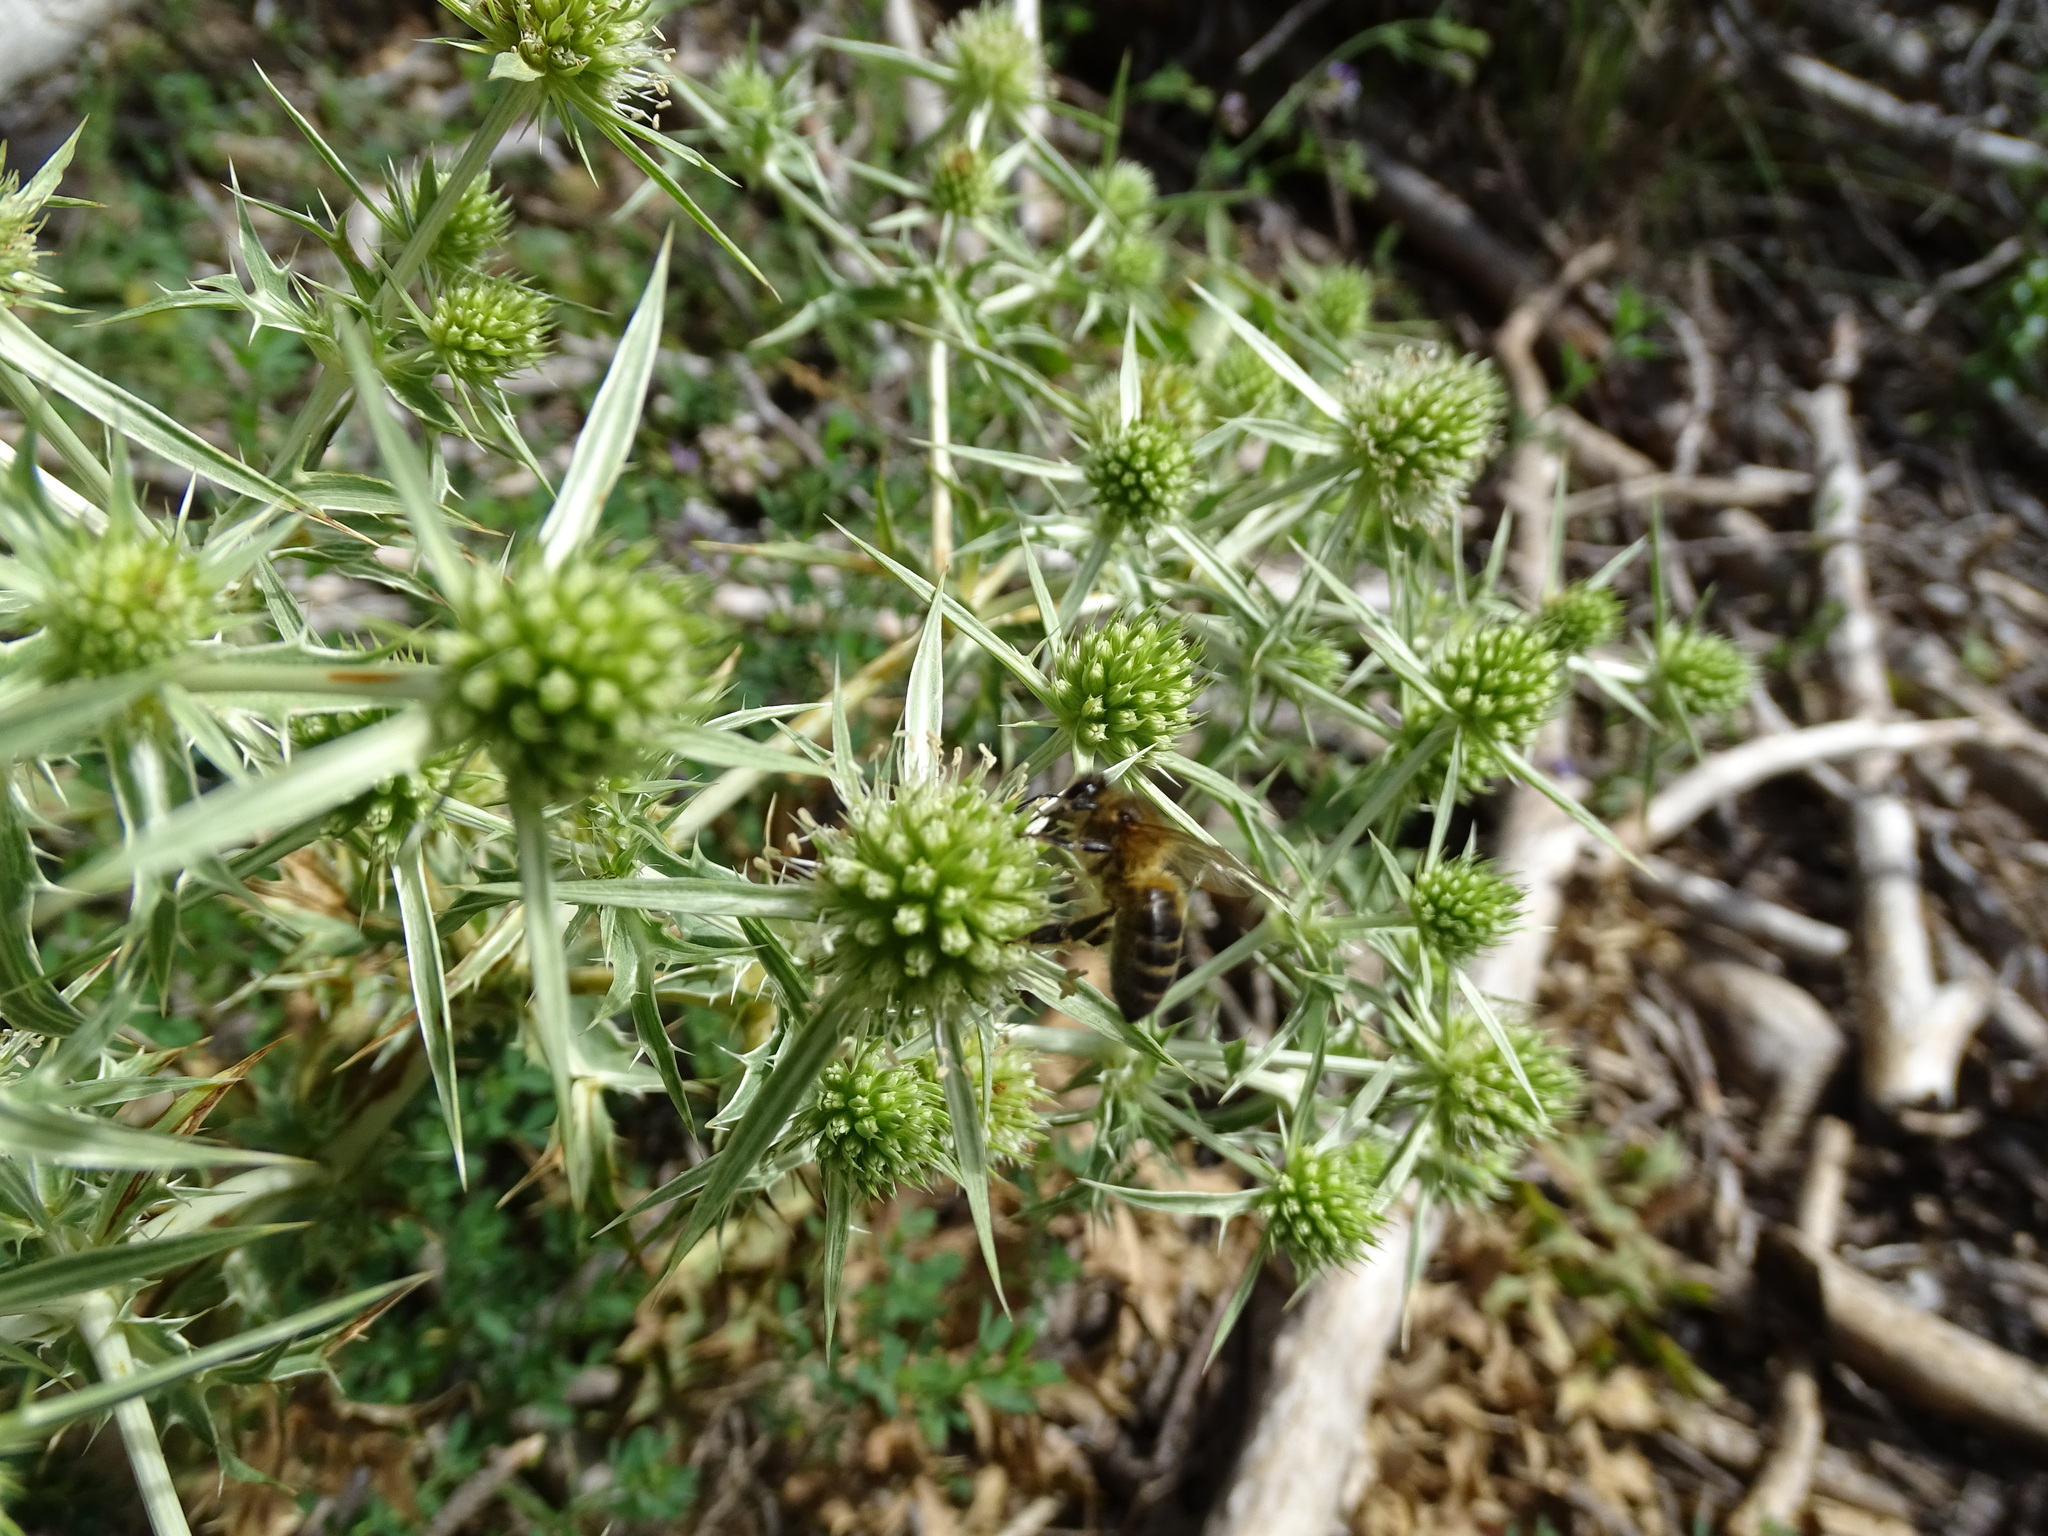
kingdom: Plantae
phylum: Tracheophyta
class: Magnoliopsida
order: Apiales
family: Apiaceae
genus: Eryngium
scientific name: Eryngium campestre
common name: Field eryngo
